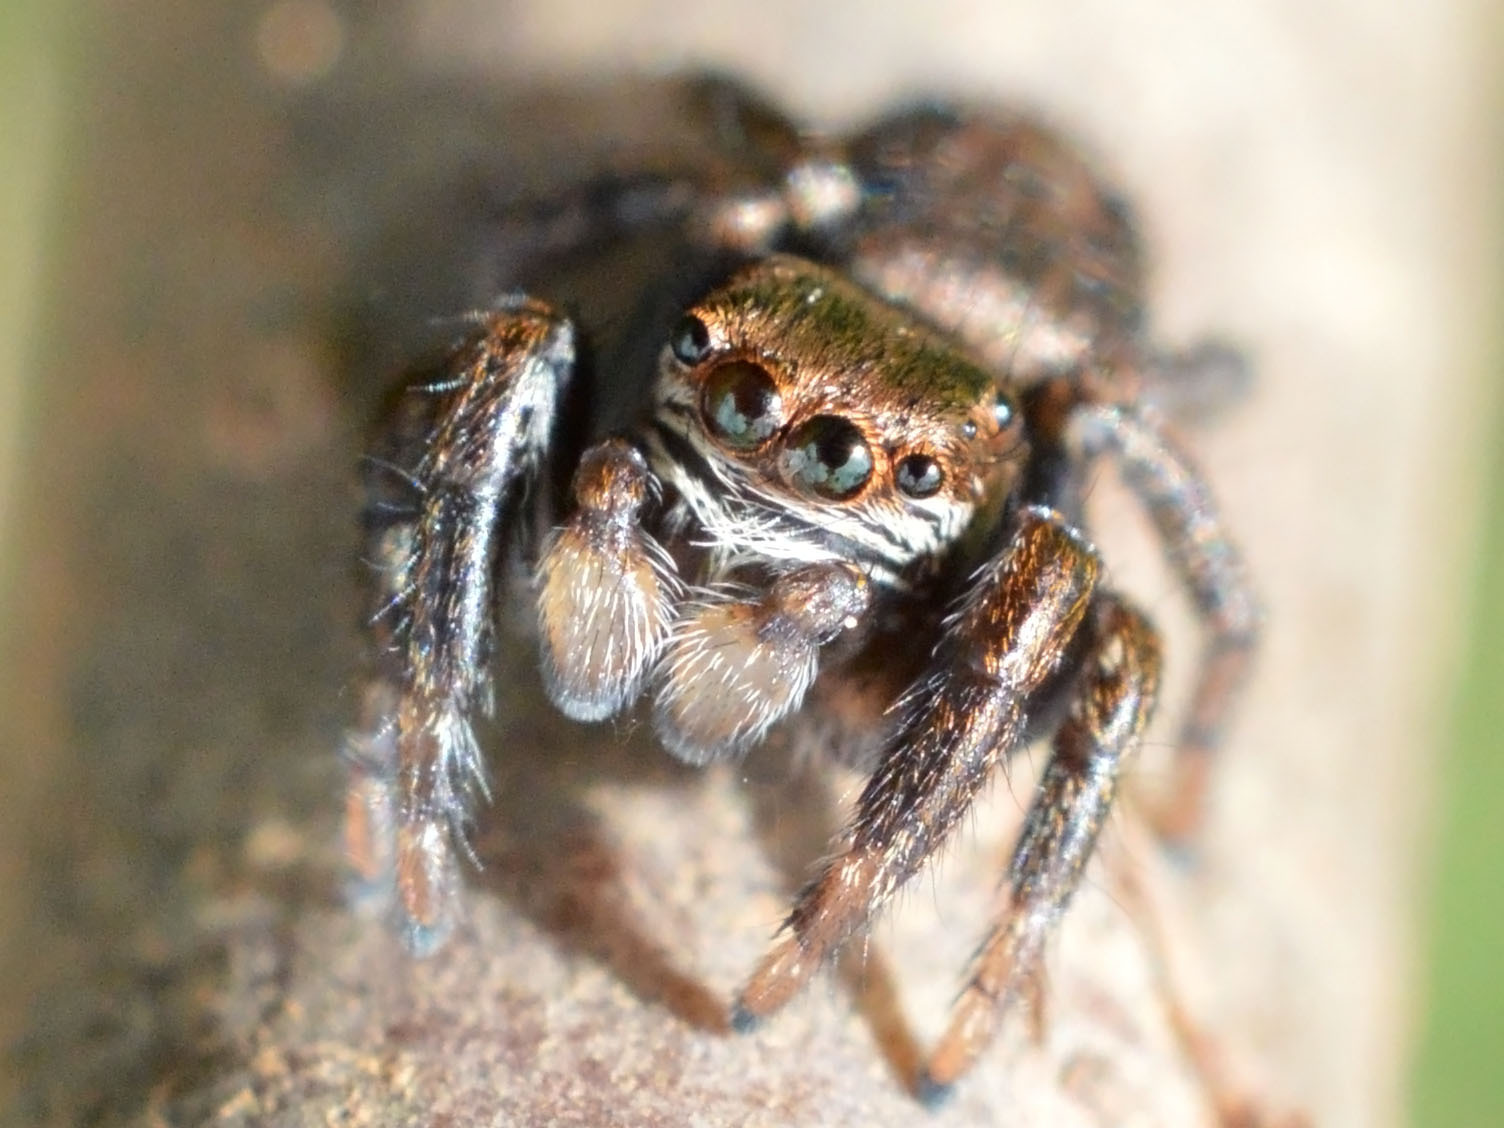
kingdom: Animalia
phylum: Arthropoda
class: Arachnida
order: Araneae
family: Salticidae
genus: Evarcha
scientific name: Evarcha arcuata
